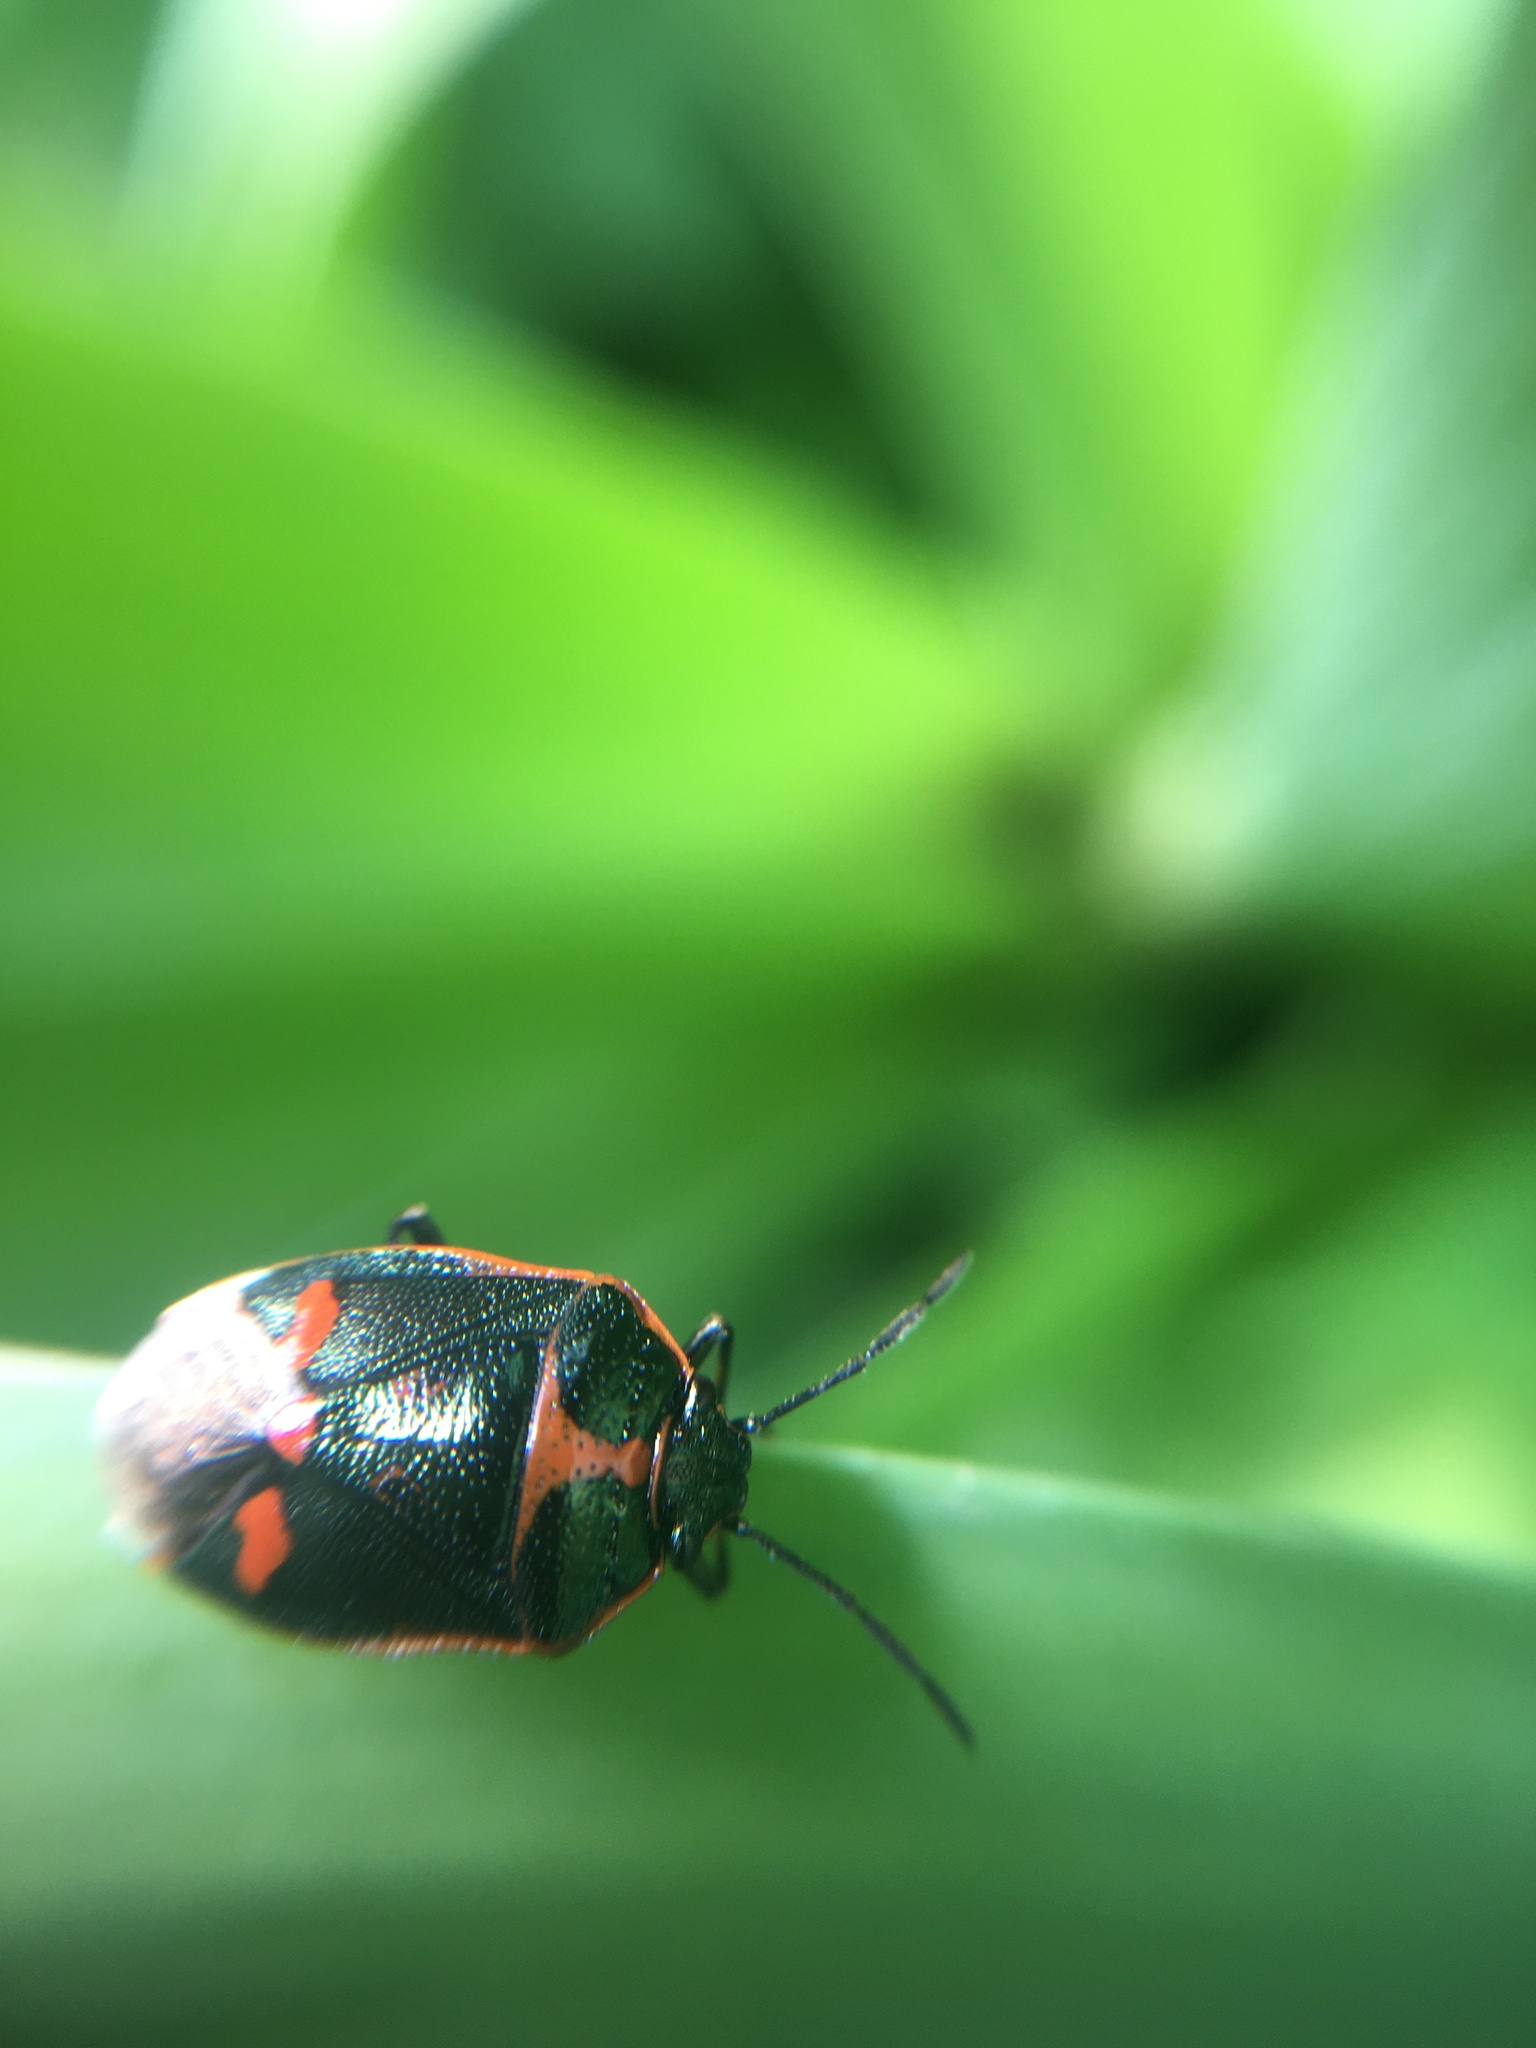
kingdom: Animalia
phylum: Arthropoda
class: Insecta
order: Hemiptera
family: Pentatomidae
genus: Eurydema
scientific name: Eurydema oleracea
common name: Cabbage bug
